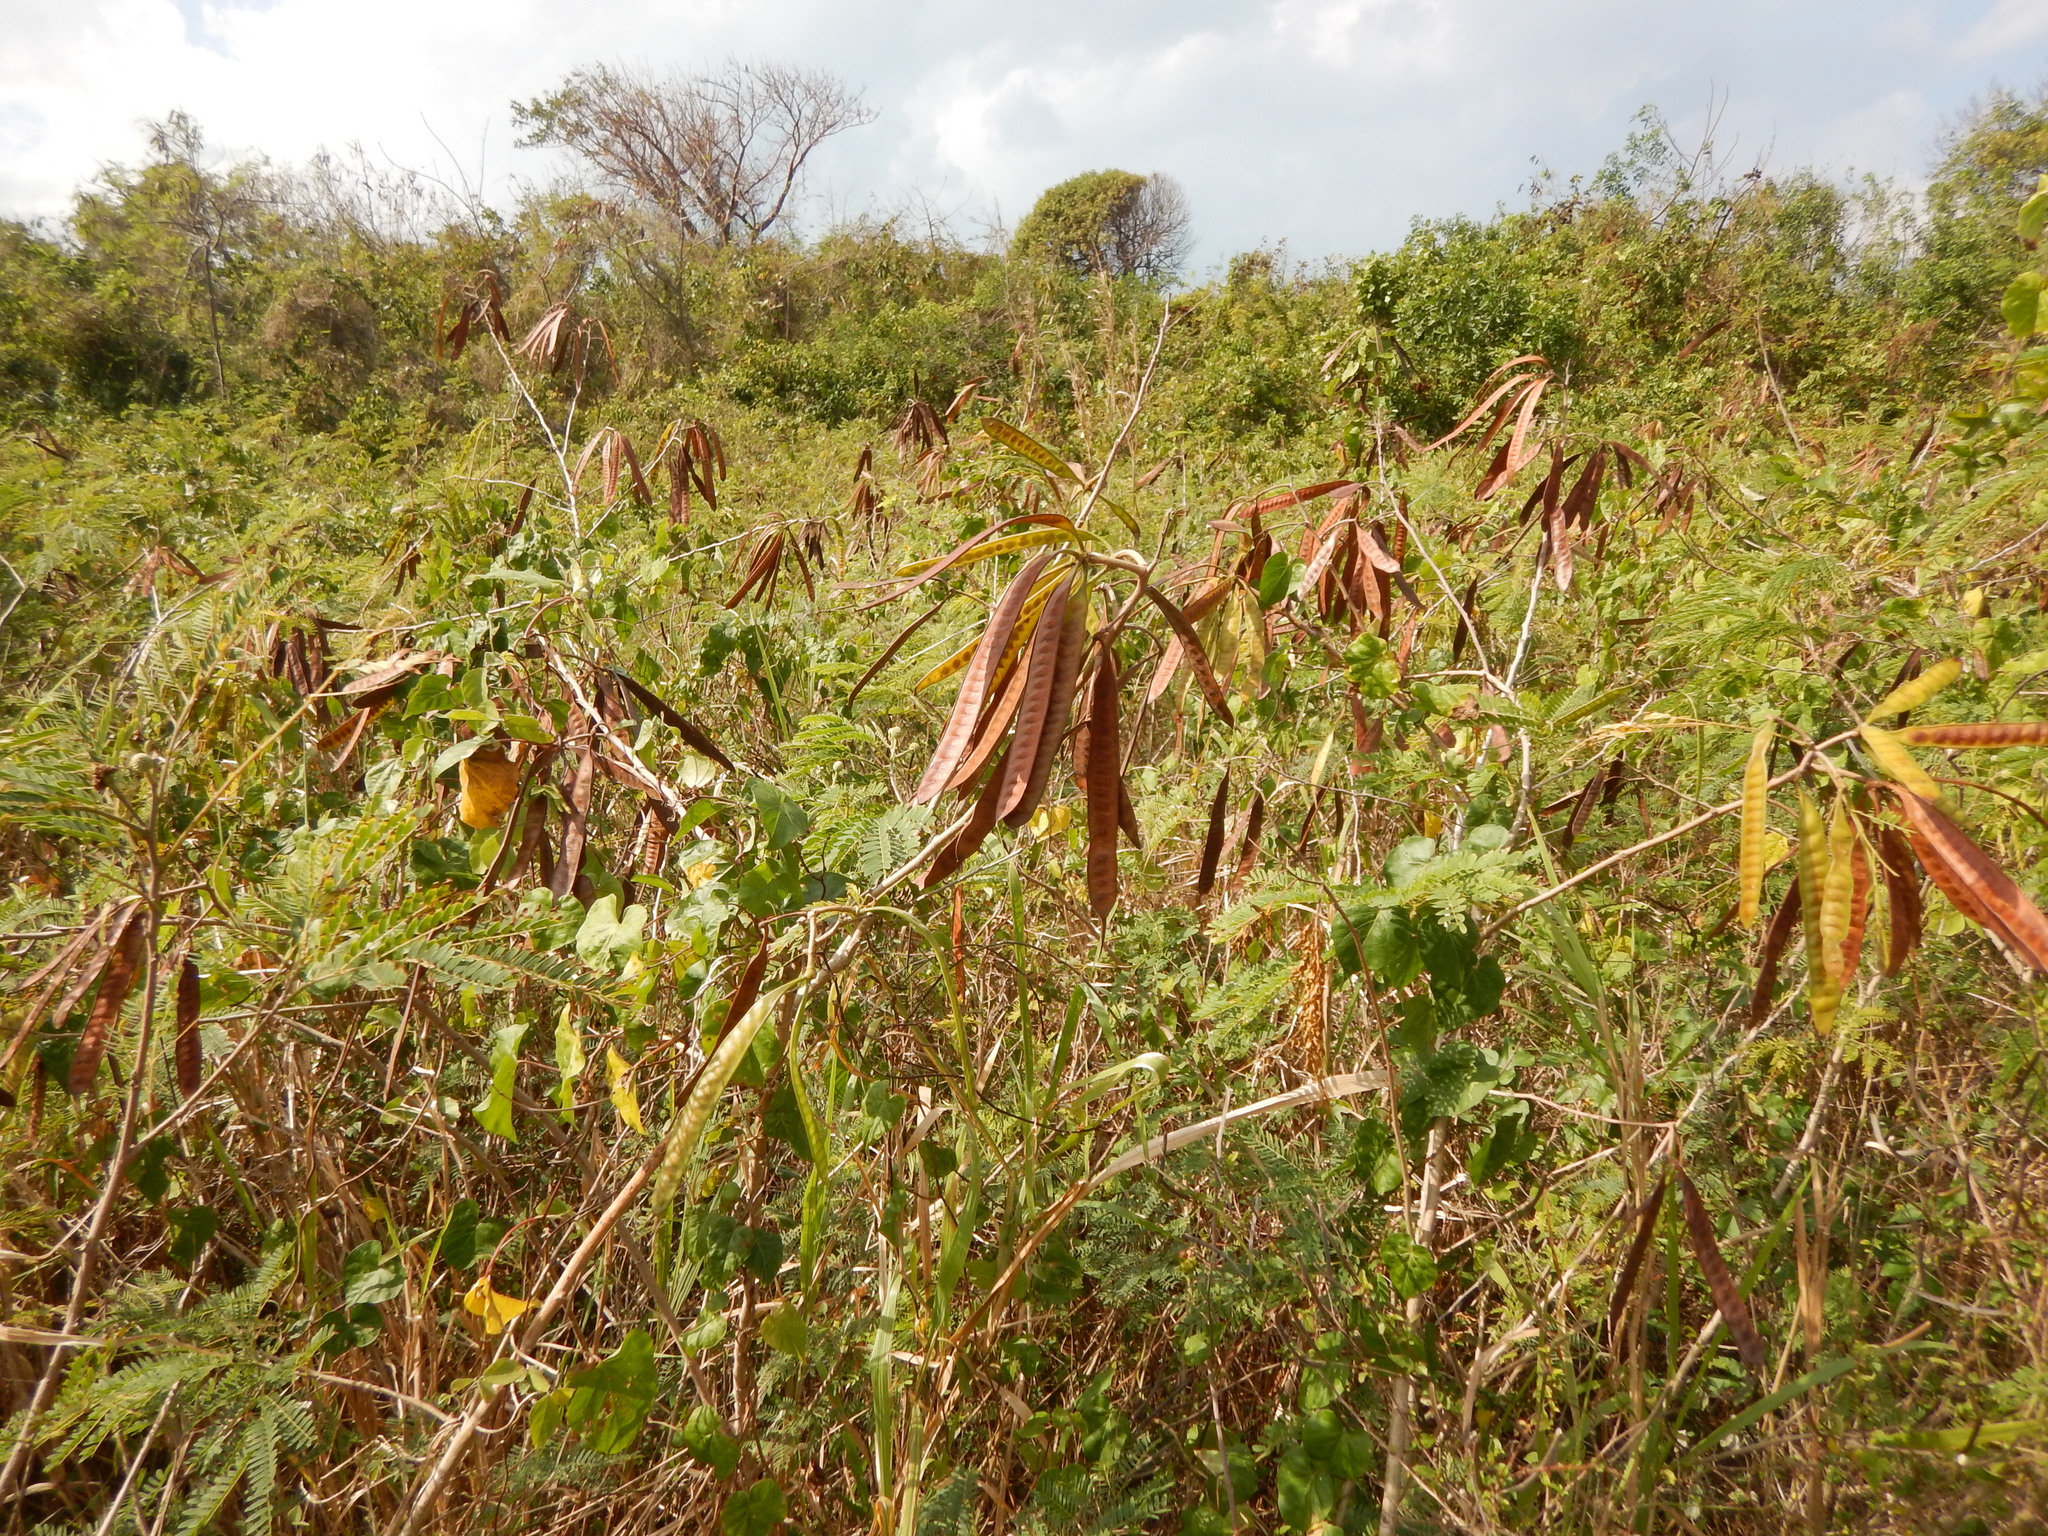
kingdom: Plantae
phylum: Tracheophyta
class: Magnoliopsida
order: Fabales
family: Fabaceae
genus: Leucaena
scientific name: Leucaena leucocephala
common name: White leadtree
